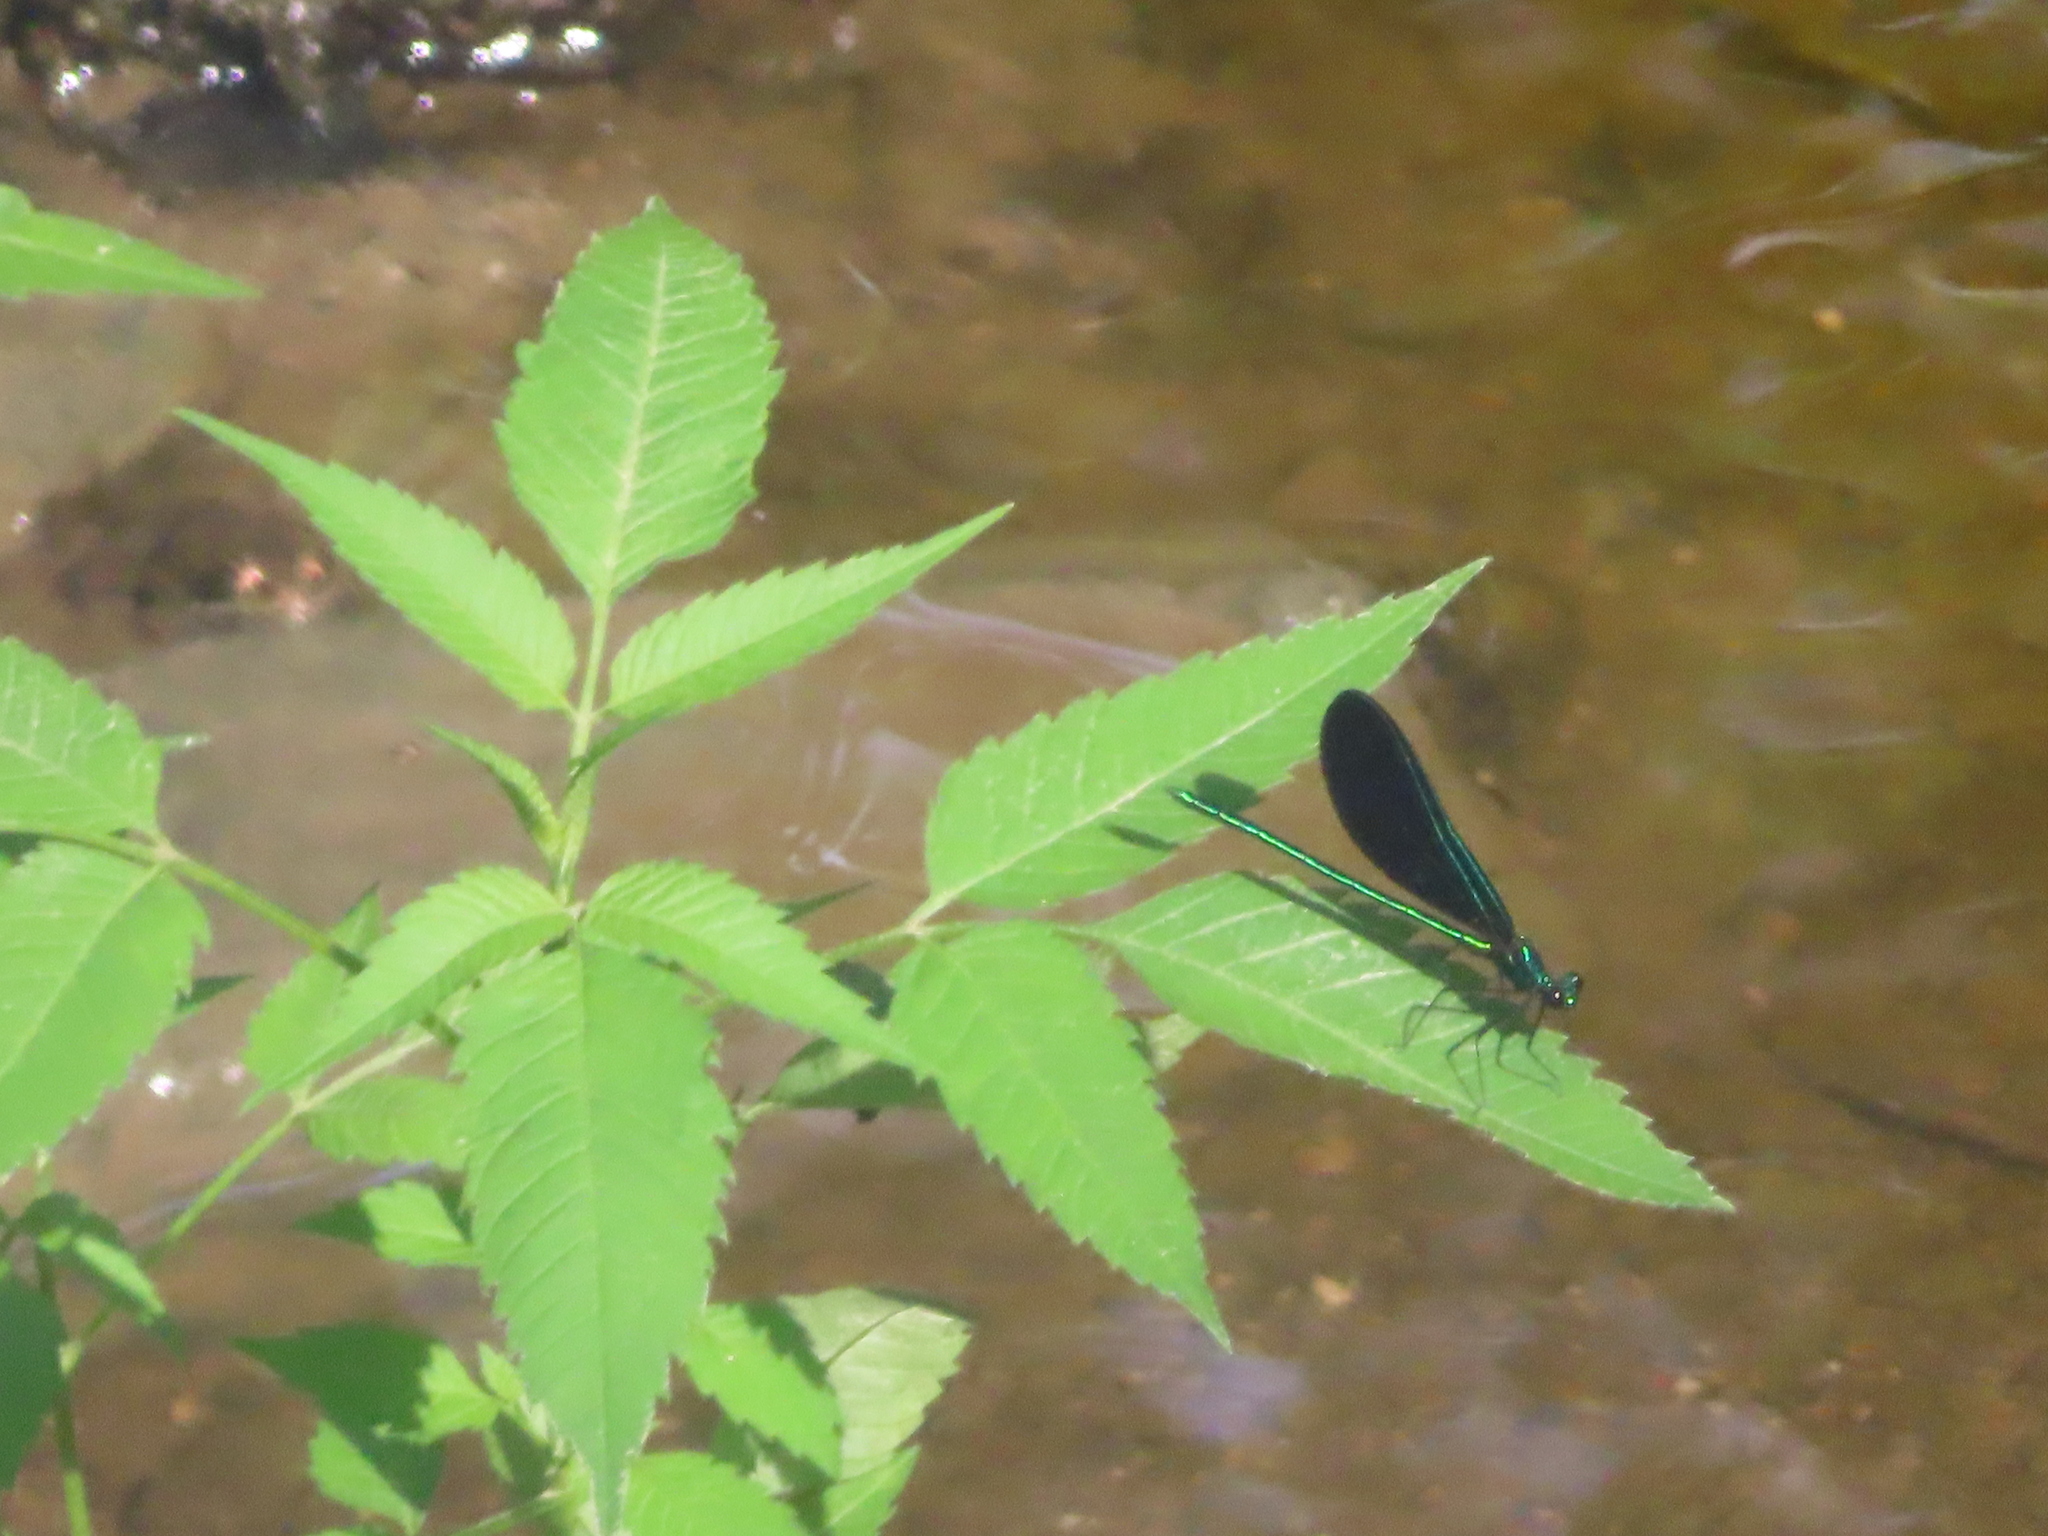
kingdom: Animalia
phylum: Arthropoda
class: Insecta
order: Odonata
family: Calopterygidae
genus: Calopteryx
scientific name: Calopteryx maculata
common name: Ebony jewelwing
